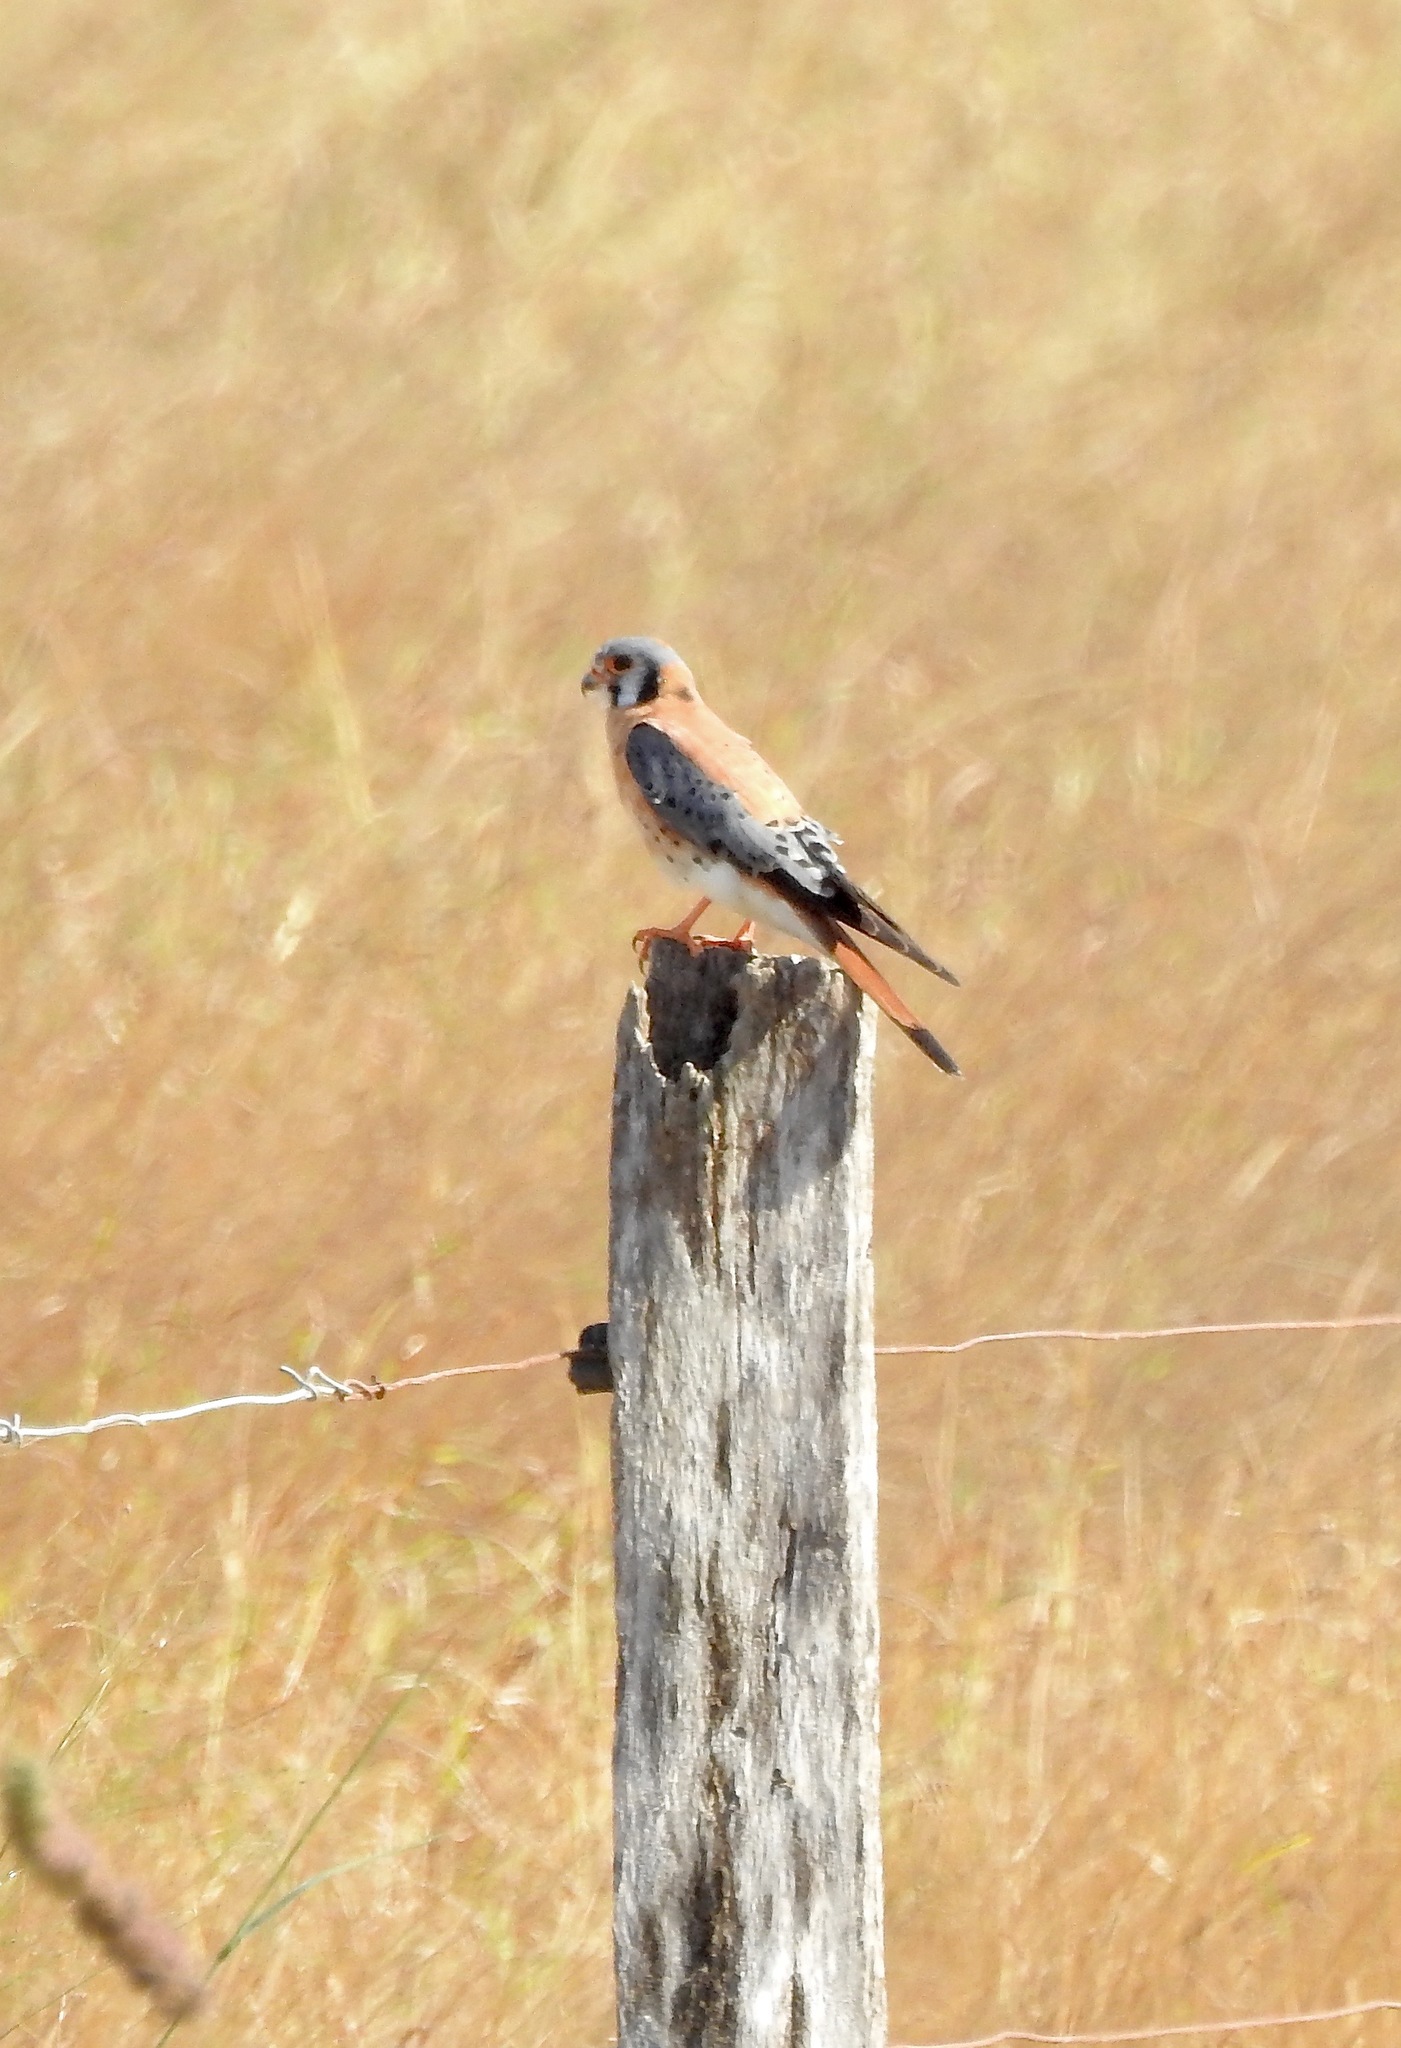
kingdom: Animalia
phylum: Chordata
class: Aves
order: Falconiformes
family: Falconidae
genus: Falco
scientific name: Falco sparverius
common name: American kestrel
